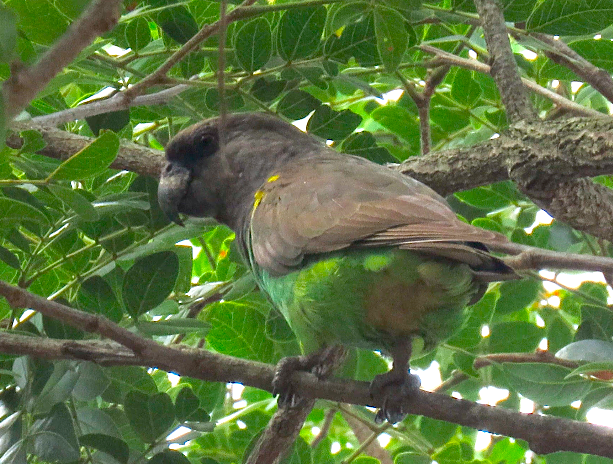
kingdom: Animalia
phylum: Chordata
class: Aves
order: Psittaciformes
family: Psittacidae
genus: Poicephalus
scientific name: Poicephalus meyeri
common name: Meyer's parrot
